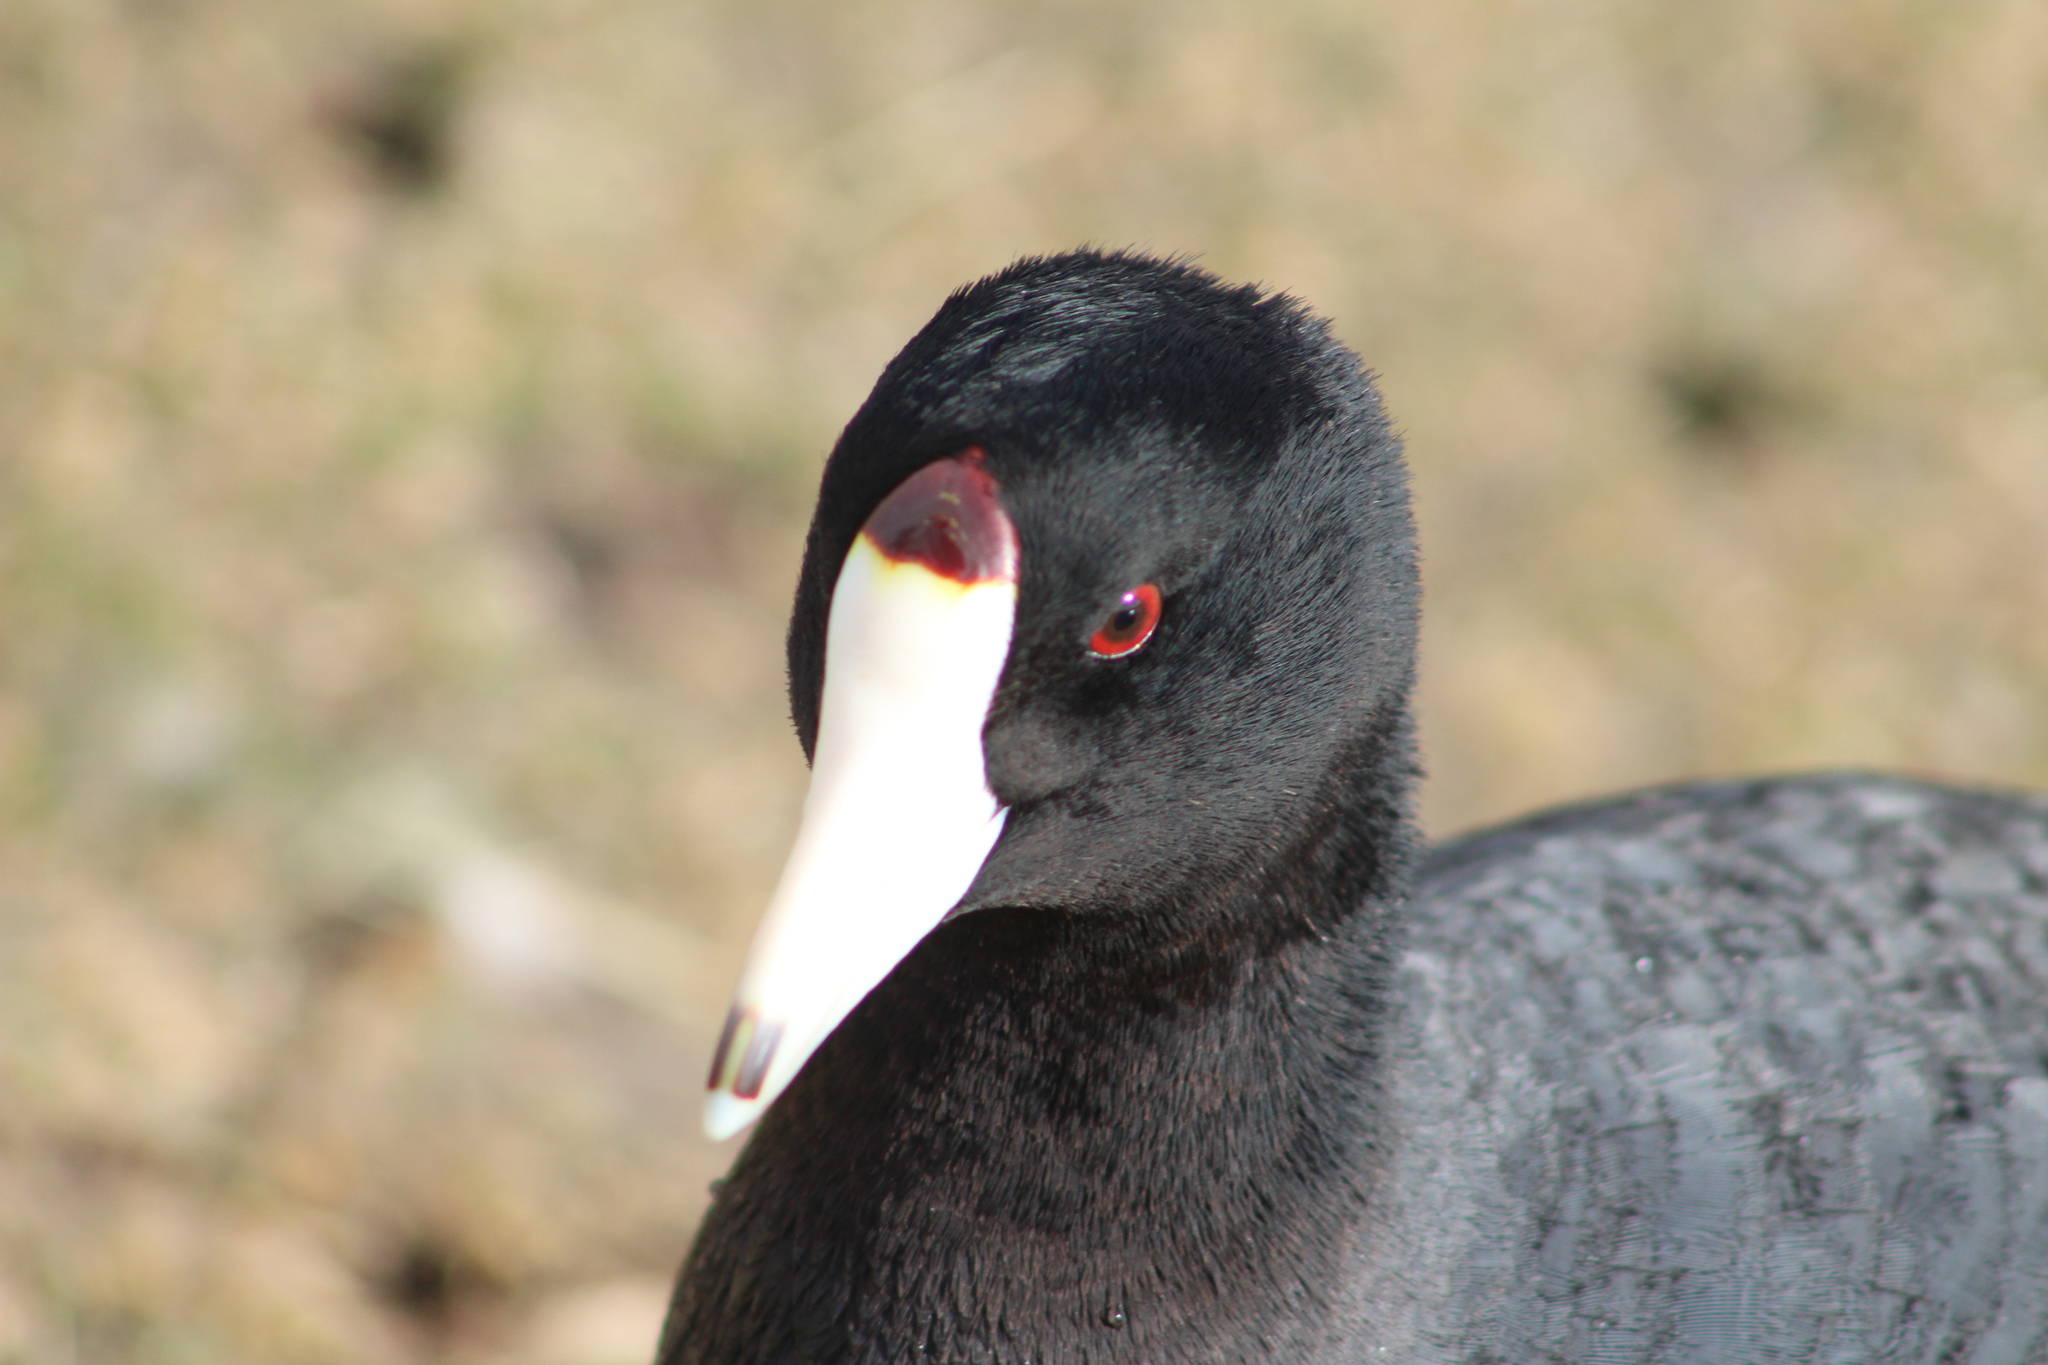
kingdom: Animalia
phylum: Chordata
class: Aves
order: Gruiformes
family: Rallidae
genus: Fulica
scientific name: Fulica americana
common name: American coot
